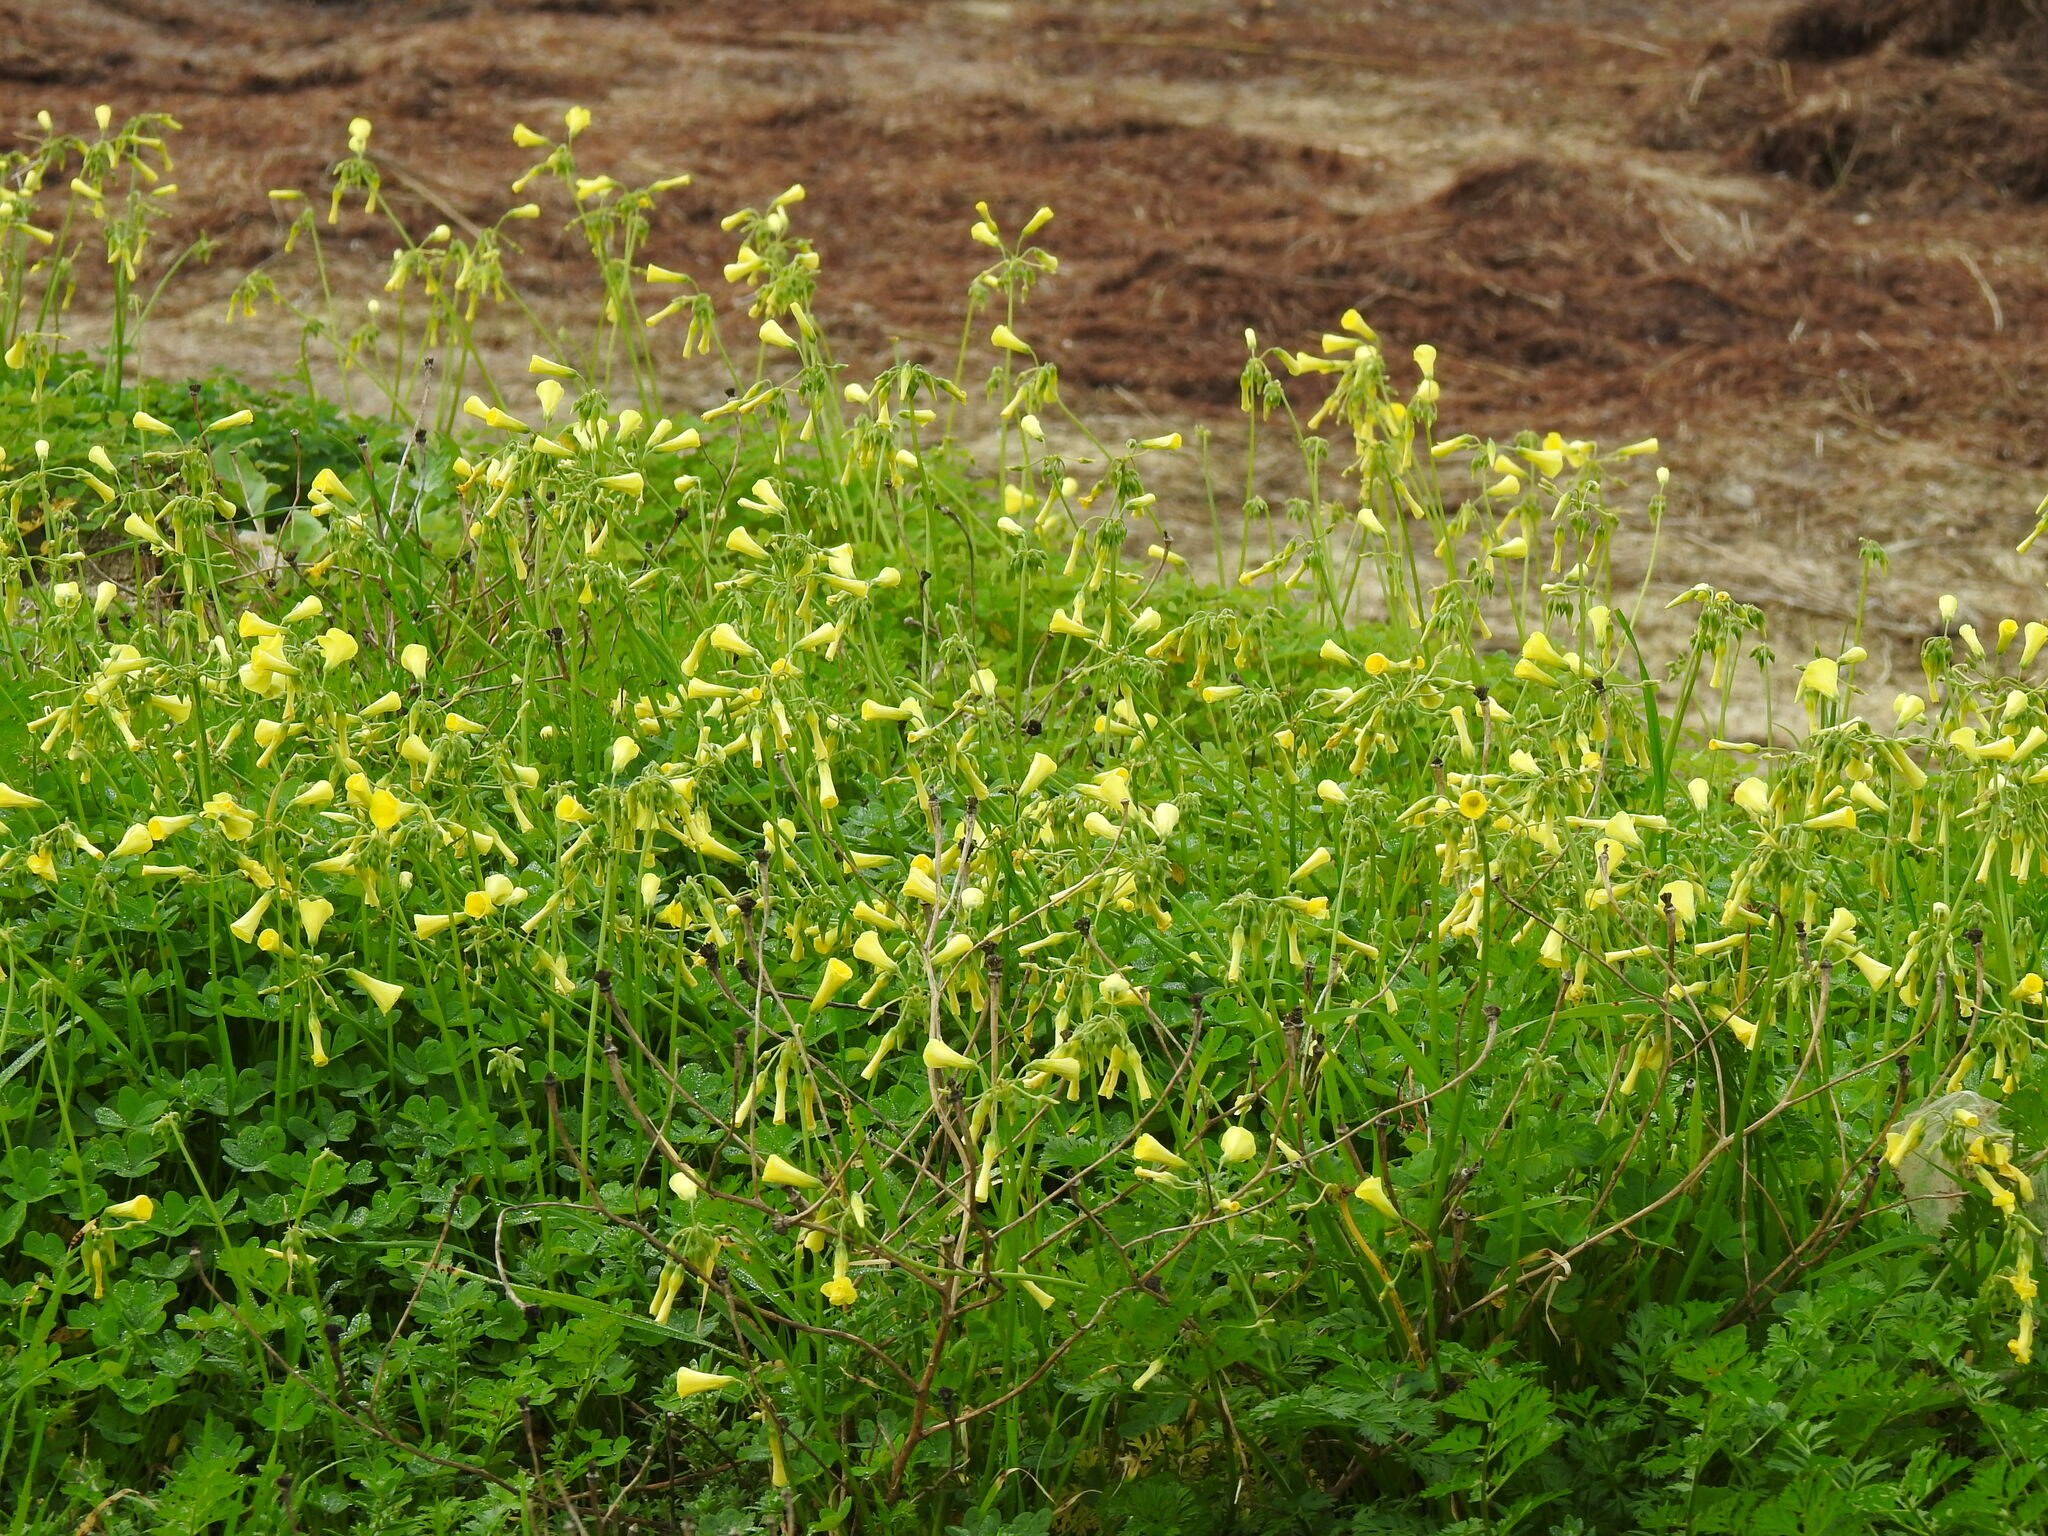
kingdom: Plantae
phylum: Tracheophyta
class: Magnoliopsida
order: Oxalidales
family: Oxalidaceae
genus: Oxalis
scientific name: Oxalis pes-caprae
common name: Bermuda-buttercup
